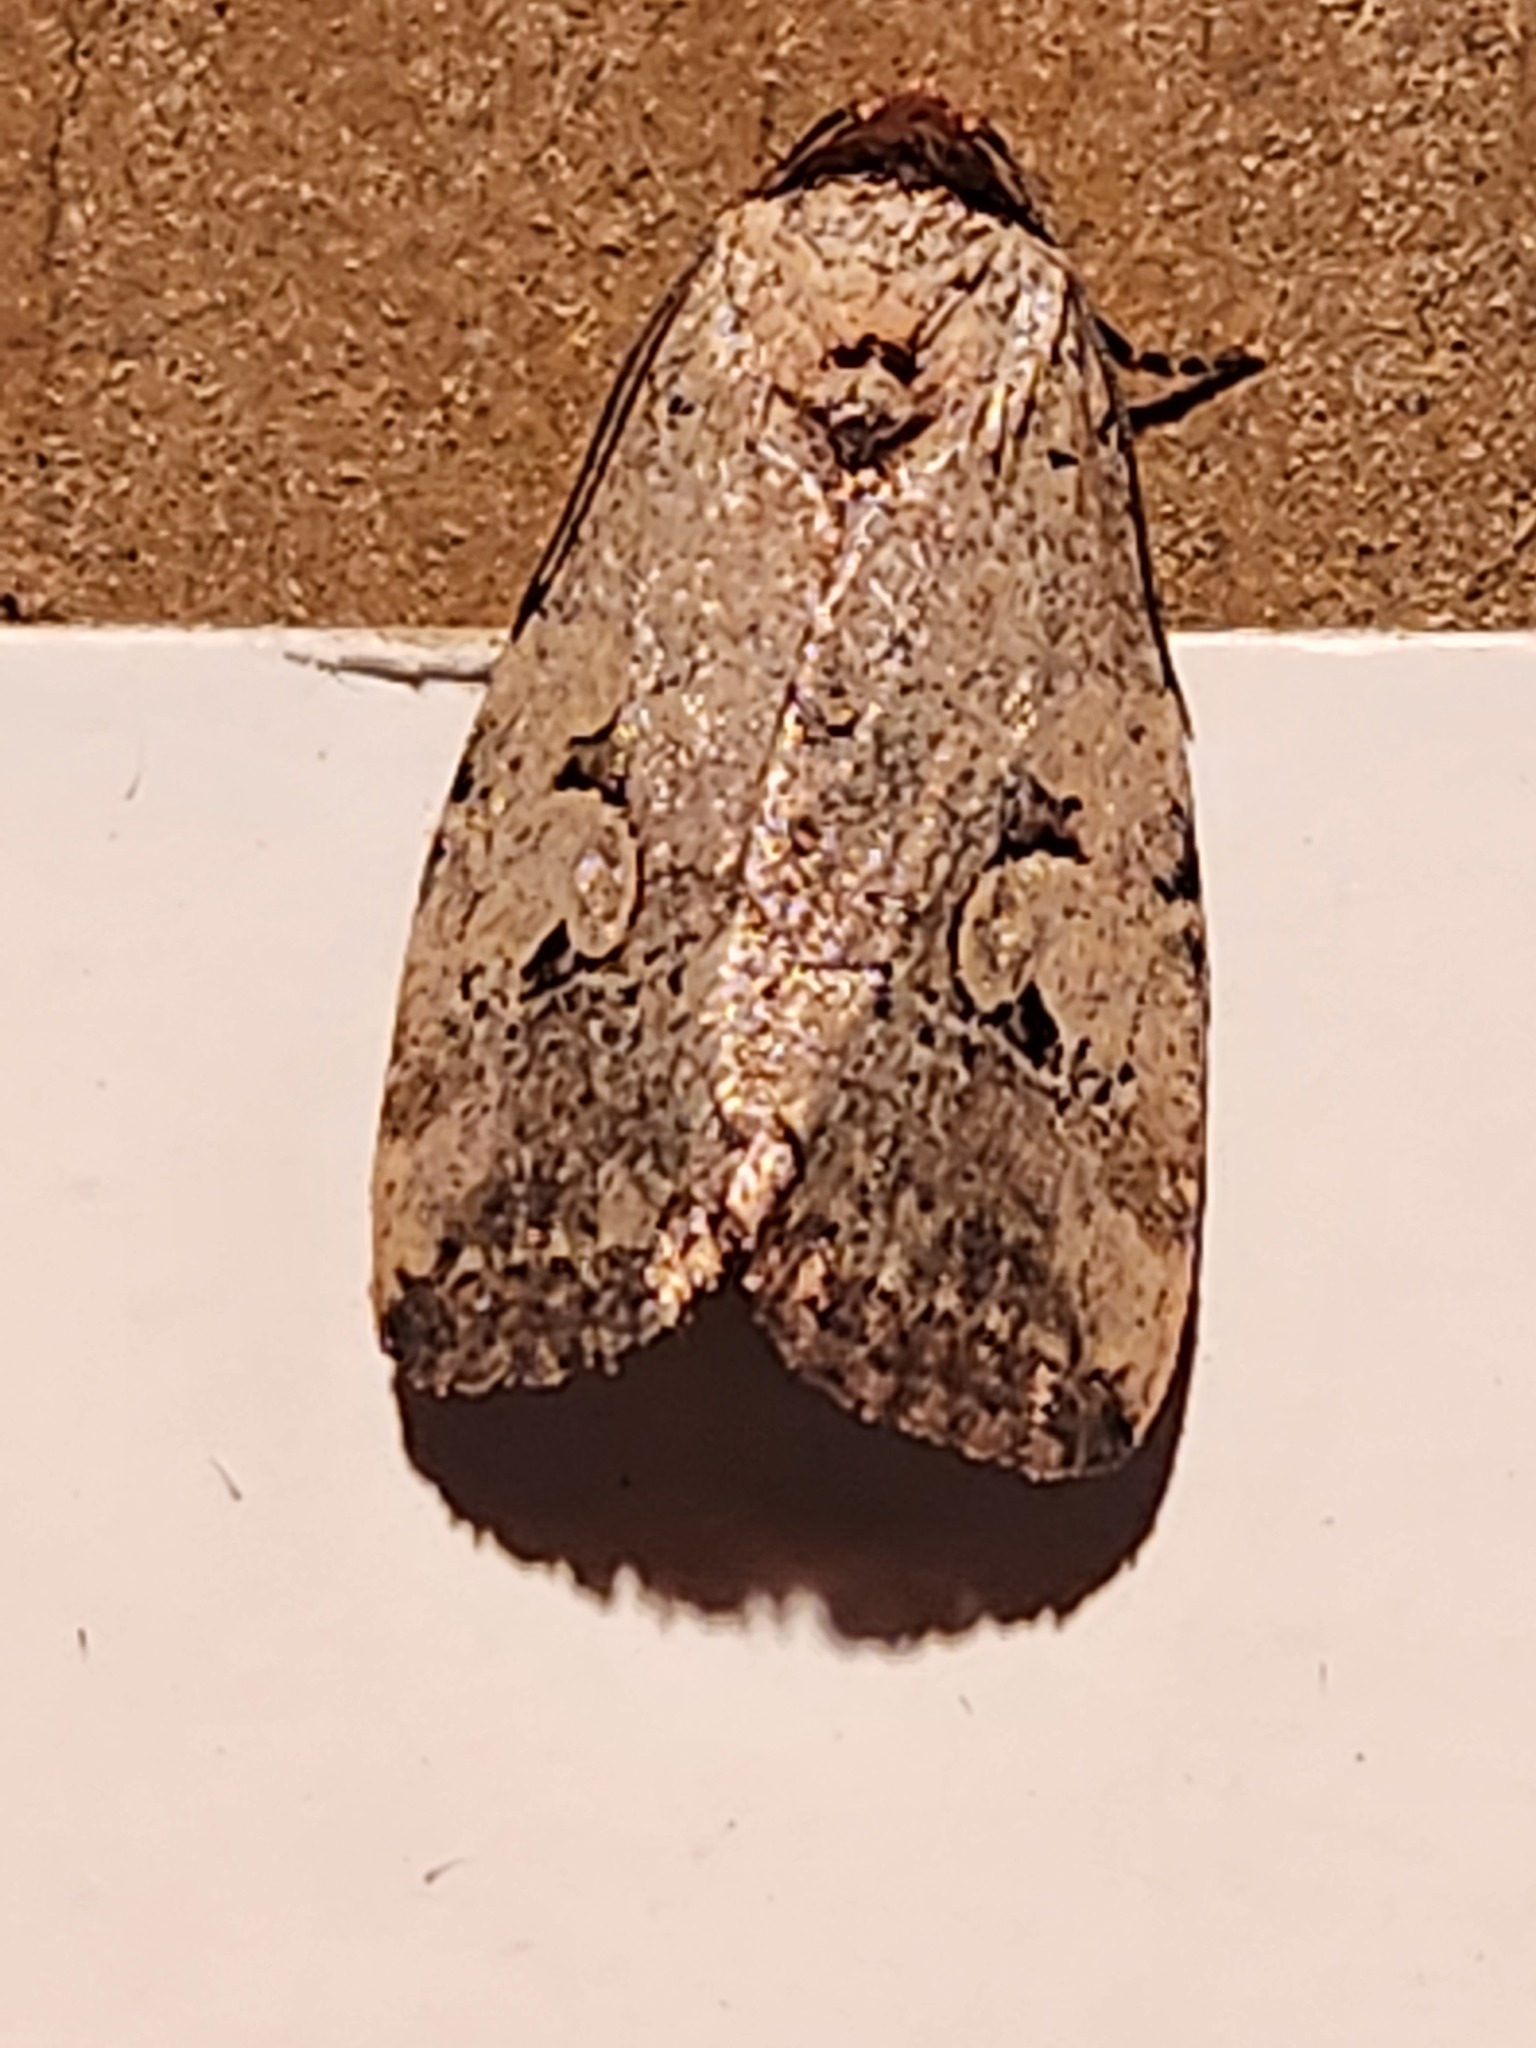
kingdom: Animalia
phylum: Arthropoda
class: Insecta
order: Lepidoptera
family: Noctuidae
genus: Elaphria
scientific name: Elaphria festivoides
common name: Festive midget
